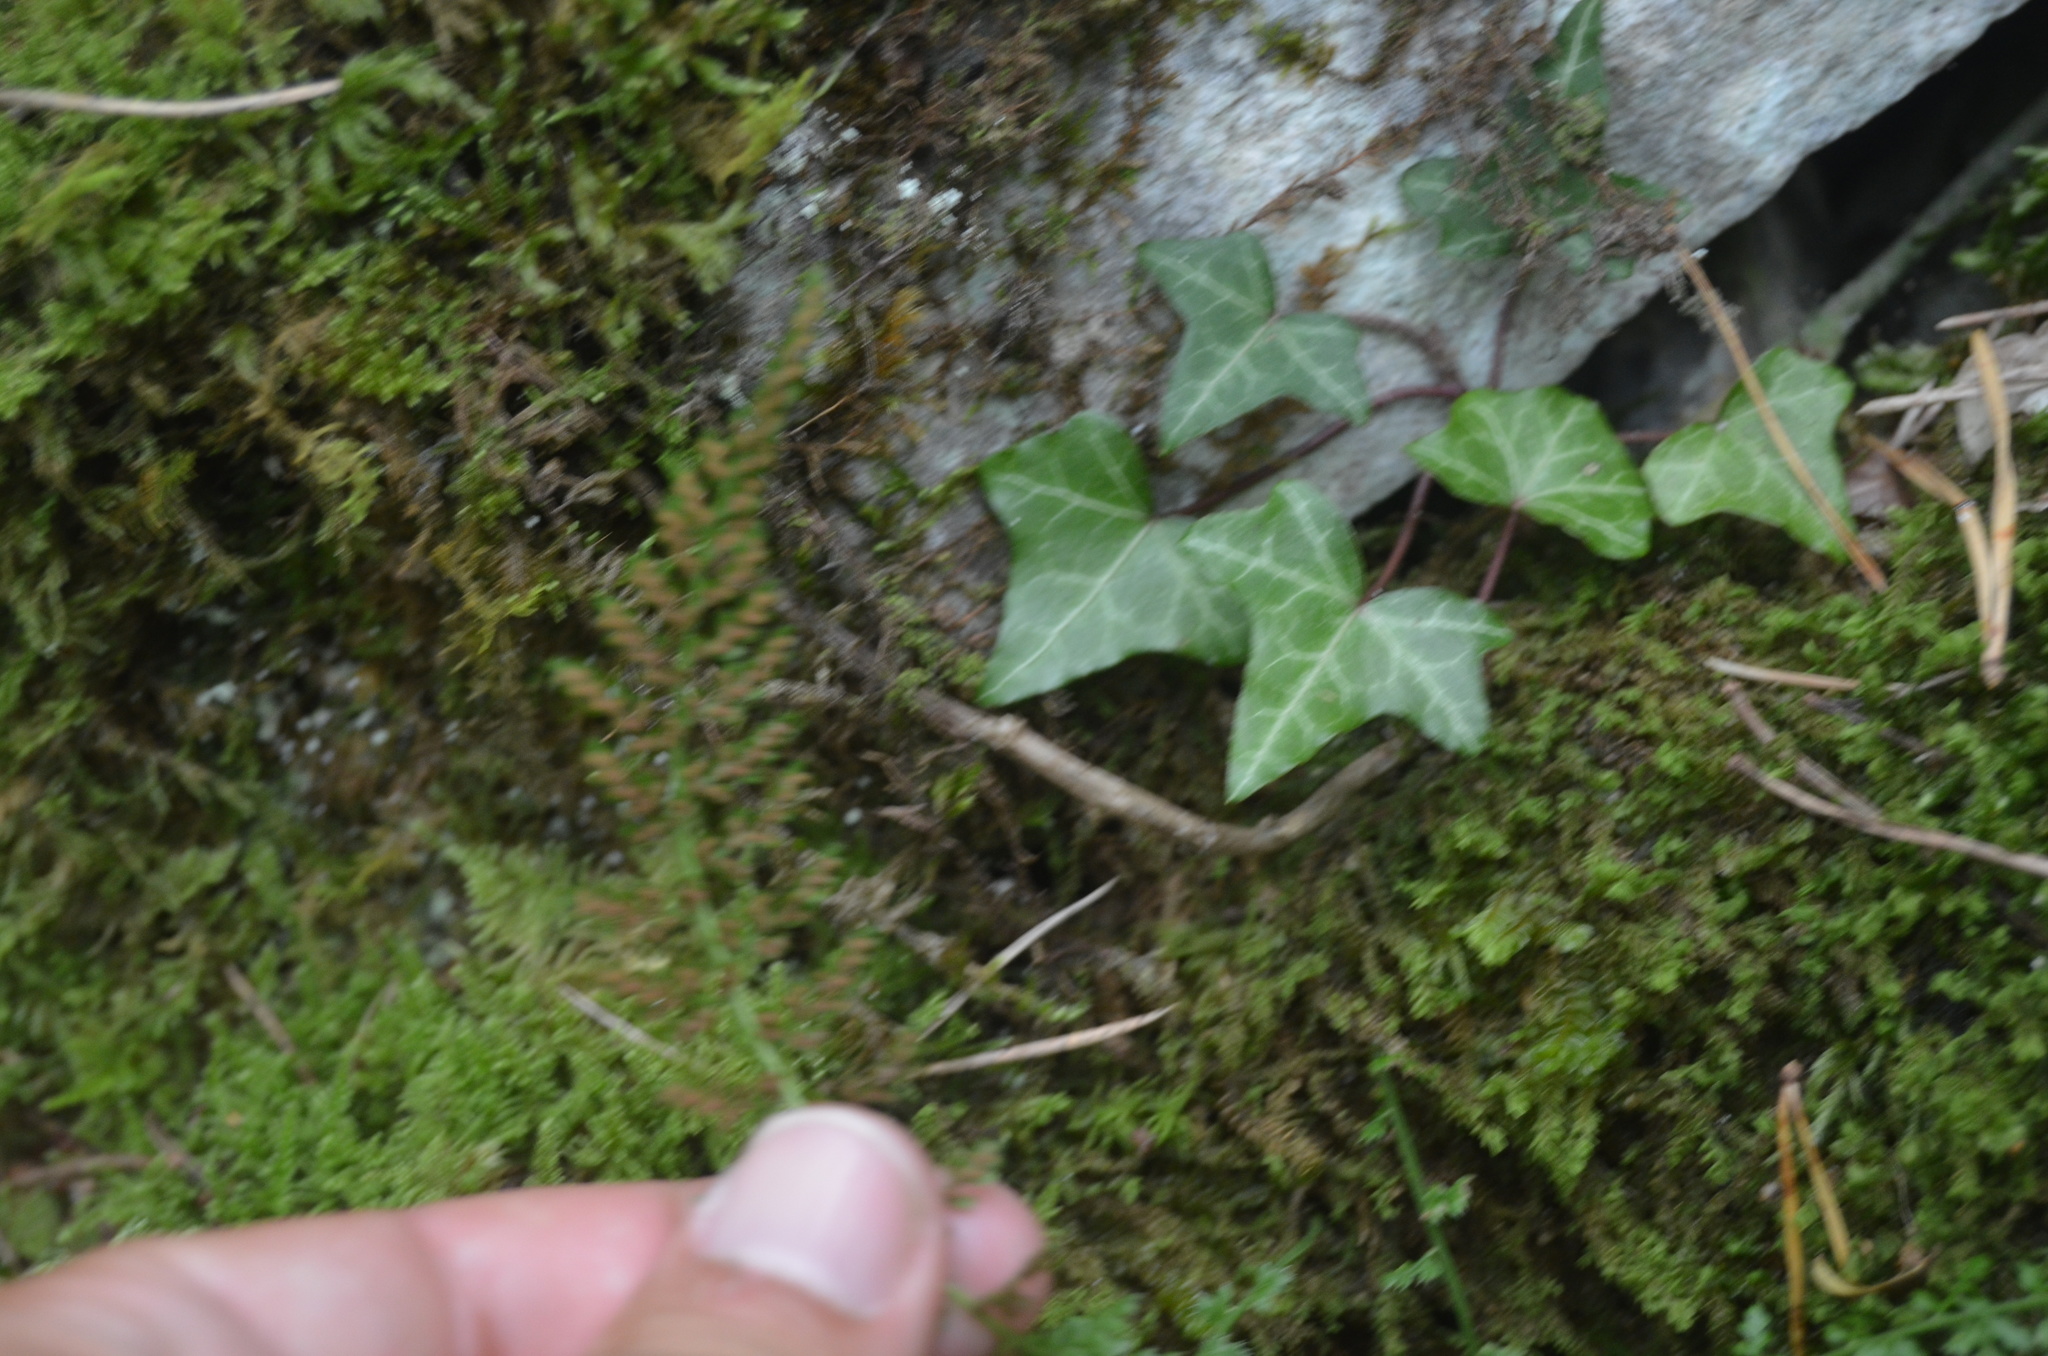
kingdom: Plantae
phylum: Tracheophyta
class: Polypodiopsida
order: Polypodiales
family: Aspleniaceae
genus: Asplenium
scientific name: Asplenium fontanum
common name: Fountain spleenwort
